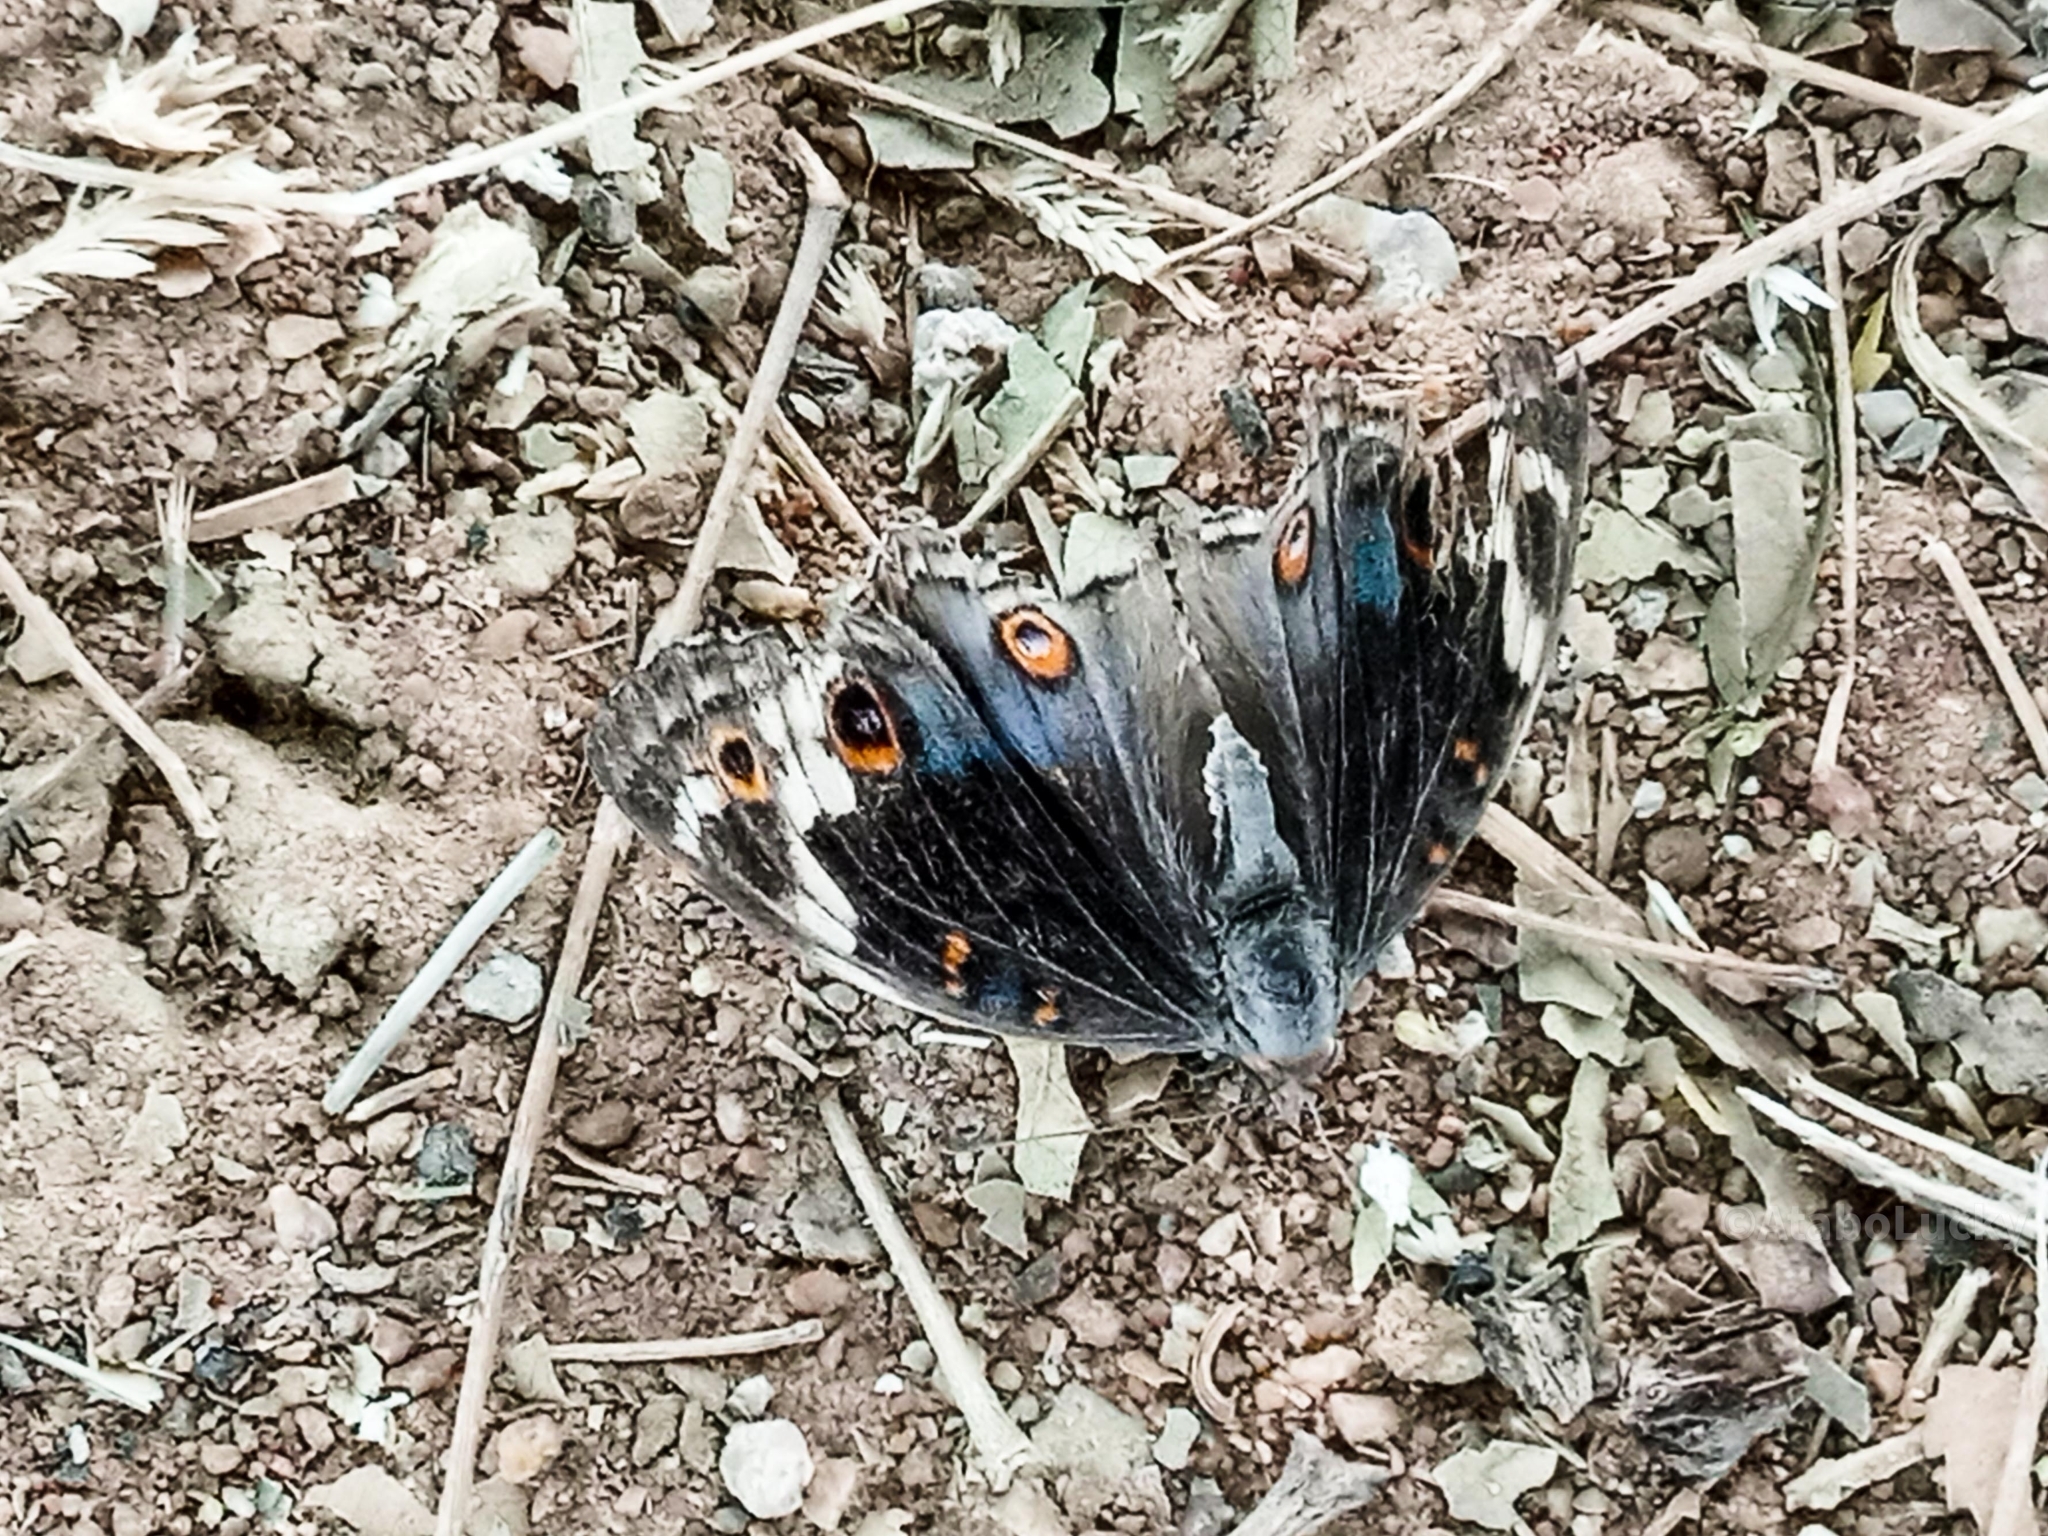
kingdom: Animalia
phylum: Arthropoda
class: Insecta
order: Lepidoptera
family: Nymphalidae
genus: Junonia
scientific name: Junonia orithya
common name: Blue pansy
